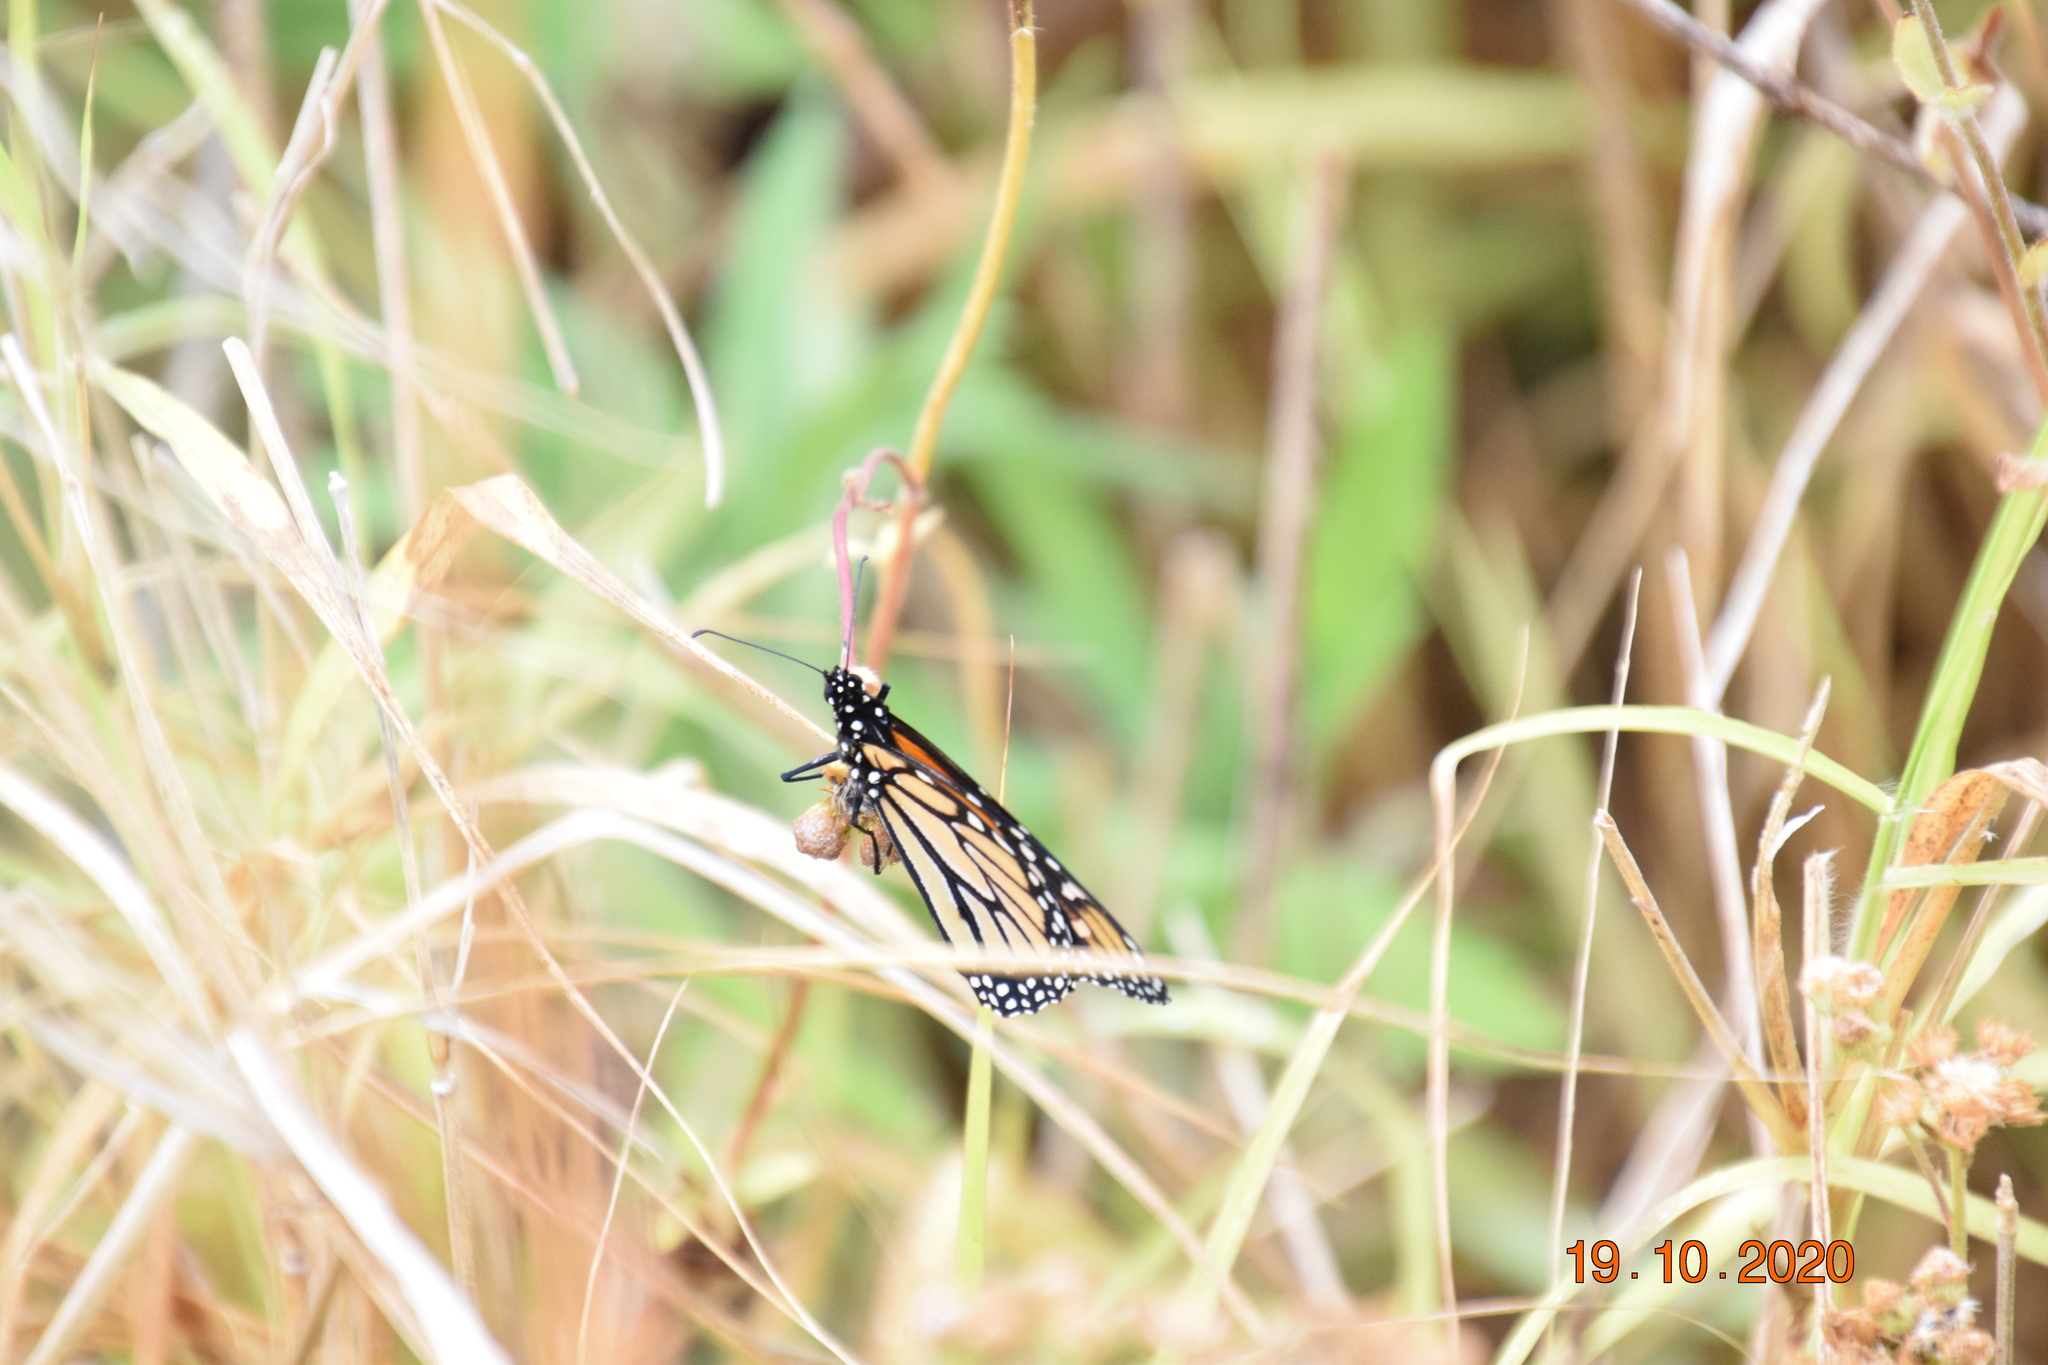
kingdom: Animalia
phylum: Arthropoda
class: Insecta
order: Lepidoptera
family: Nymphalidae
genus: Danaus
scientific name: Danaus plexippus
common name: Monarch
